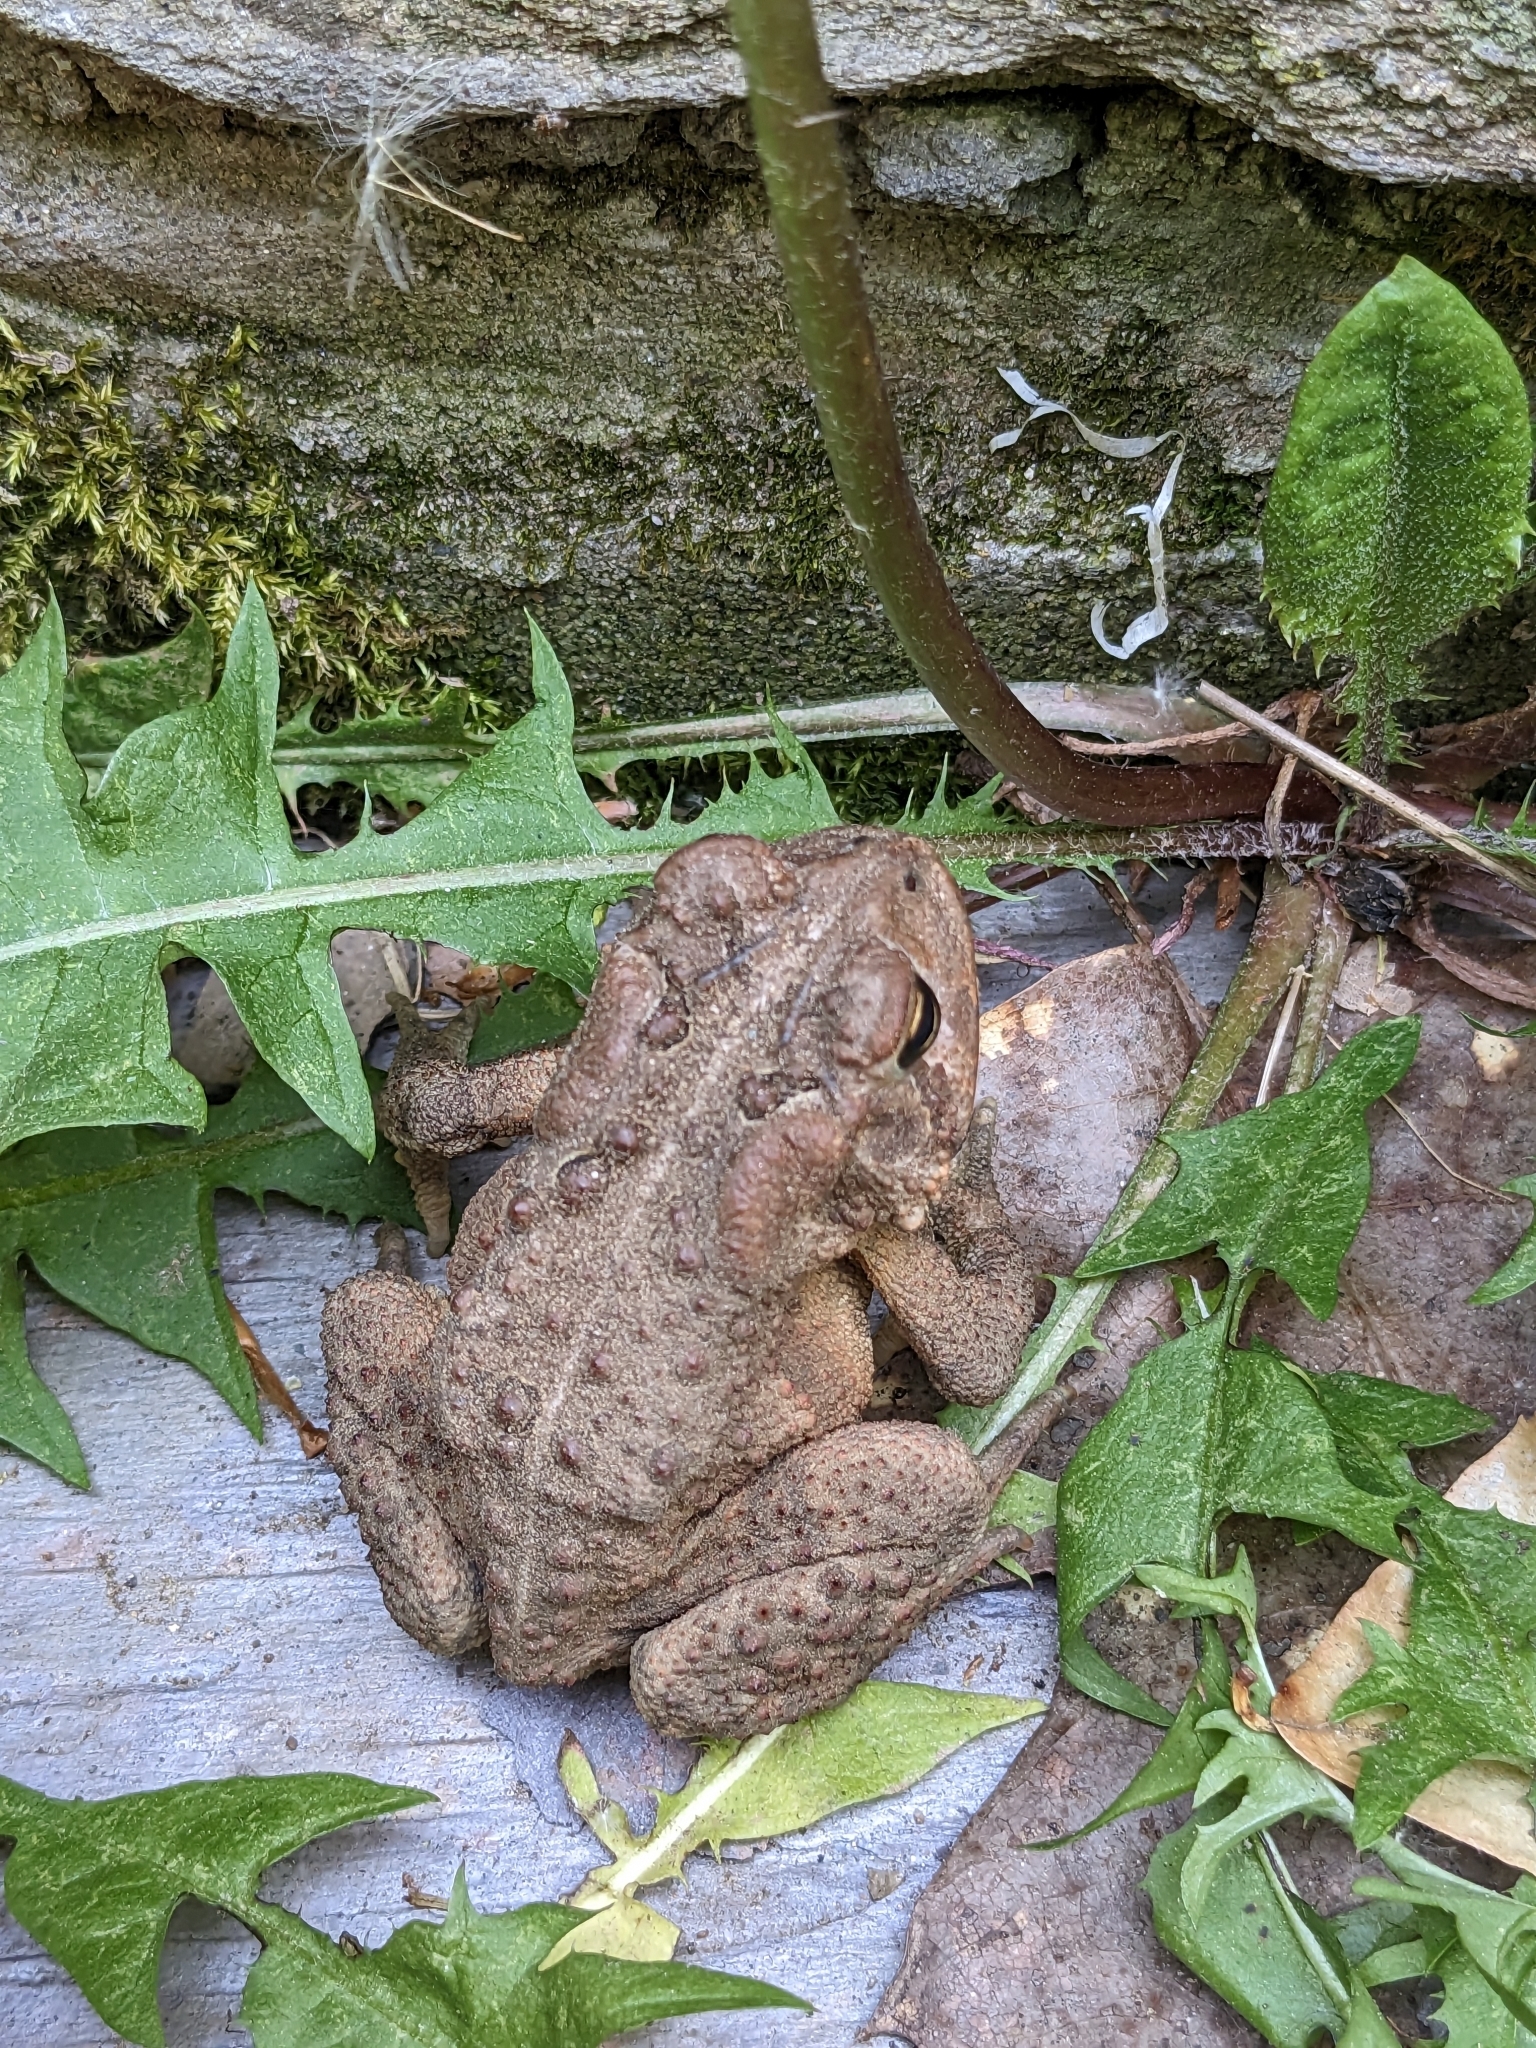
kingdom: Animalia
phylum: Chordata
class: Amphibia
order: Anura
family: Bufonidae
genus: Anaxyrus
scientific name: Anaxyrus americanus
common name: American toad
